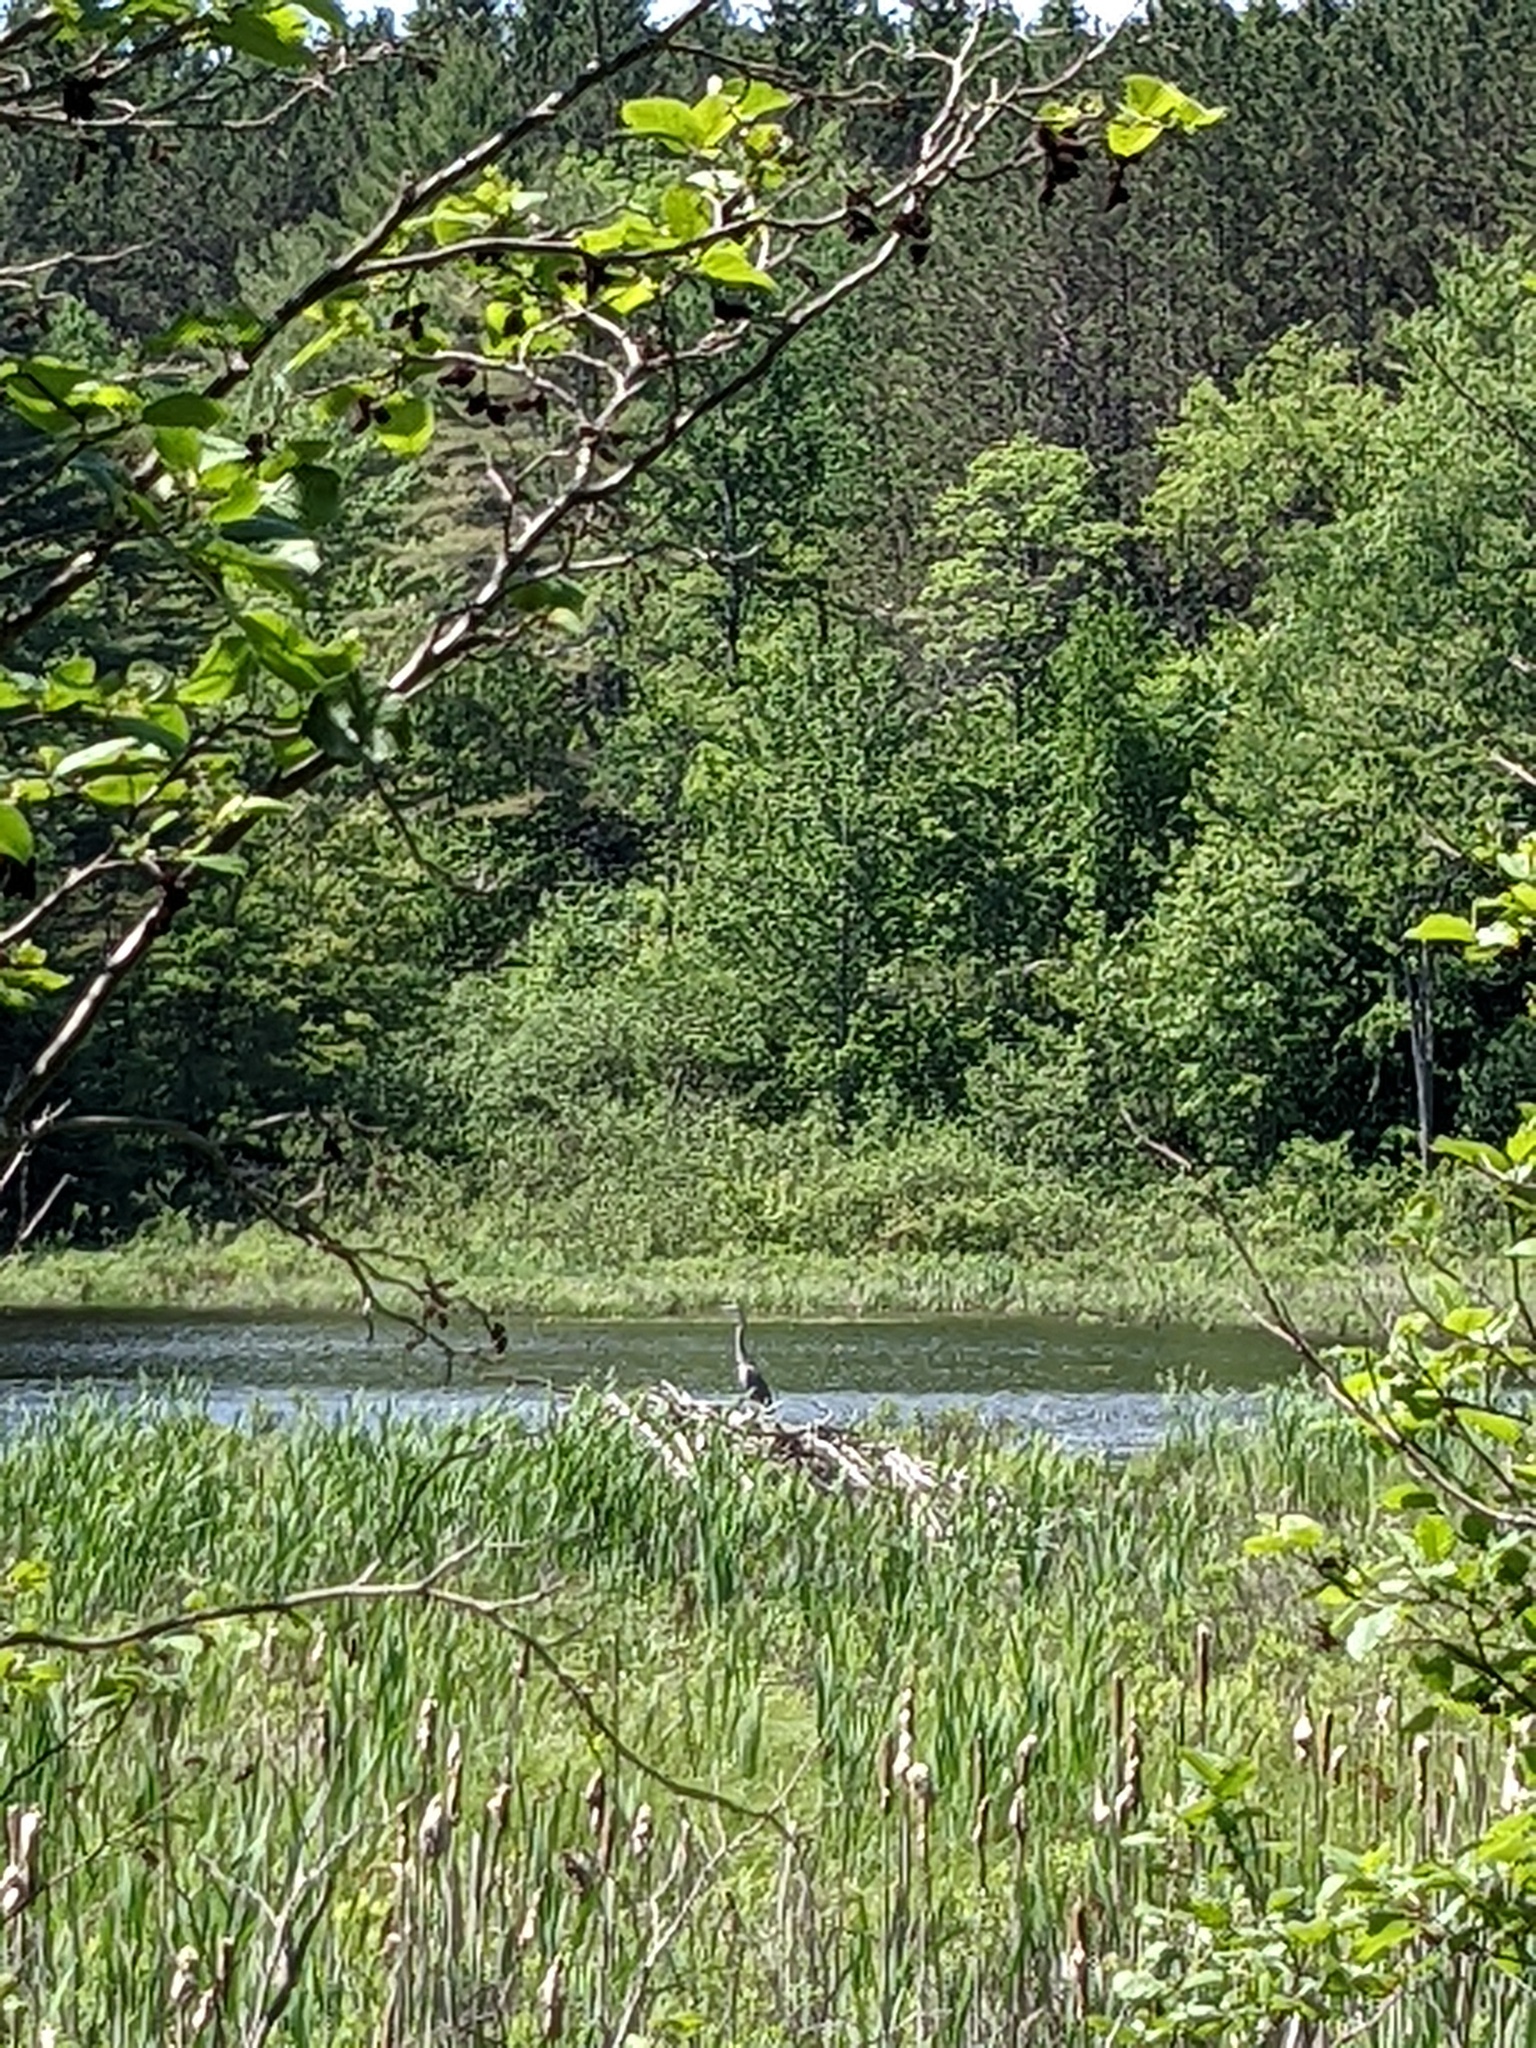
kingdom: Animalia
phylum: Chordata
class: Aves
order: Pelecaniformes
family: Ardeidae
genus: Ardea
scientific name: Ardea herodias
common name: Great blue heron
